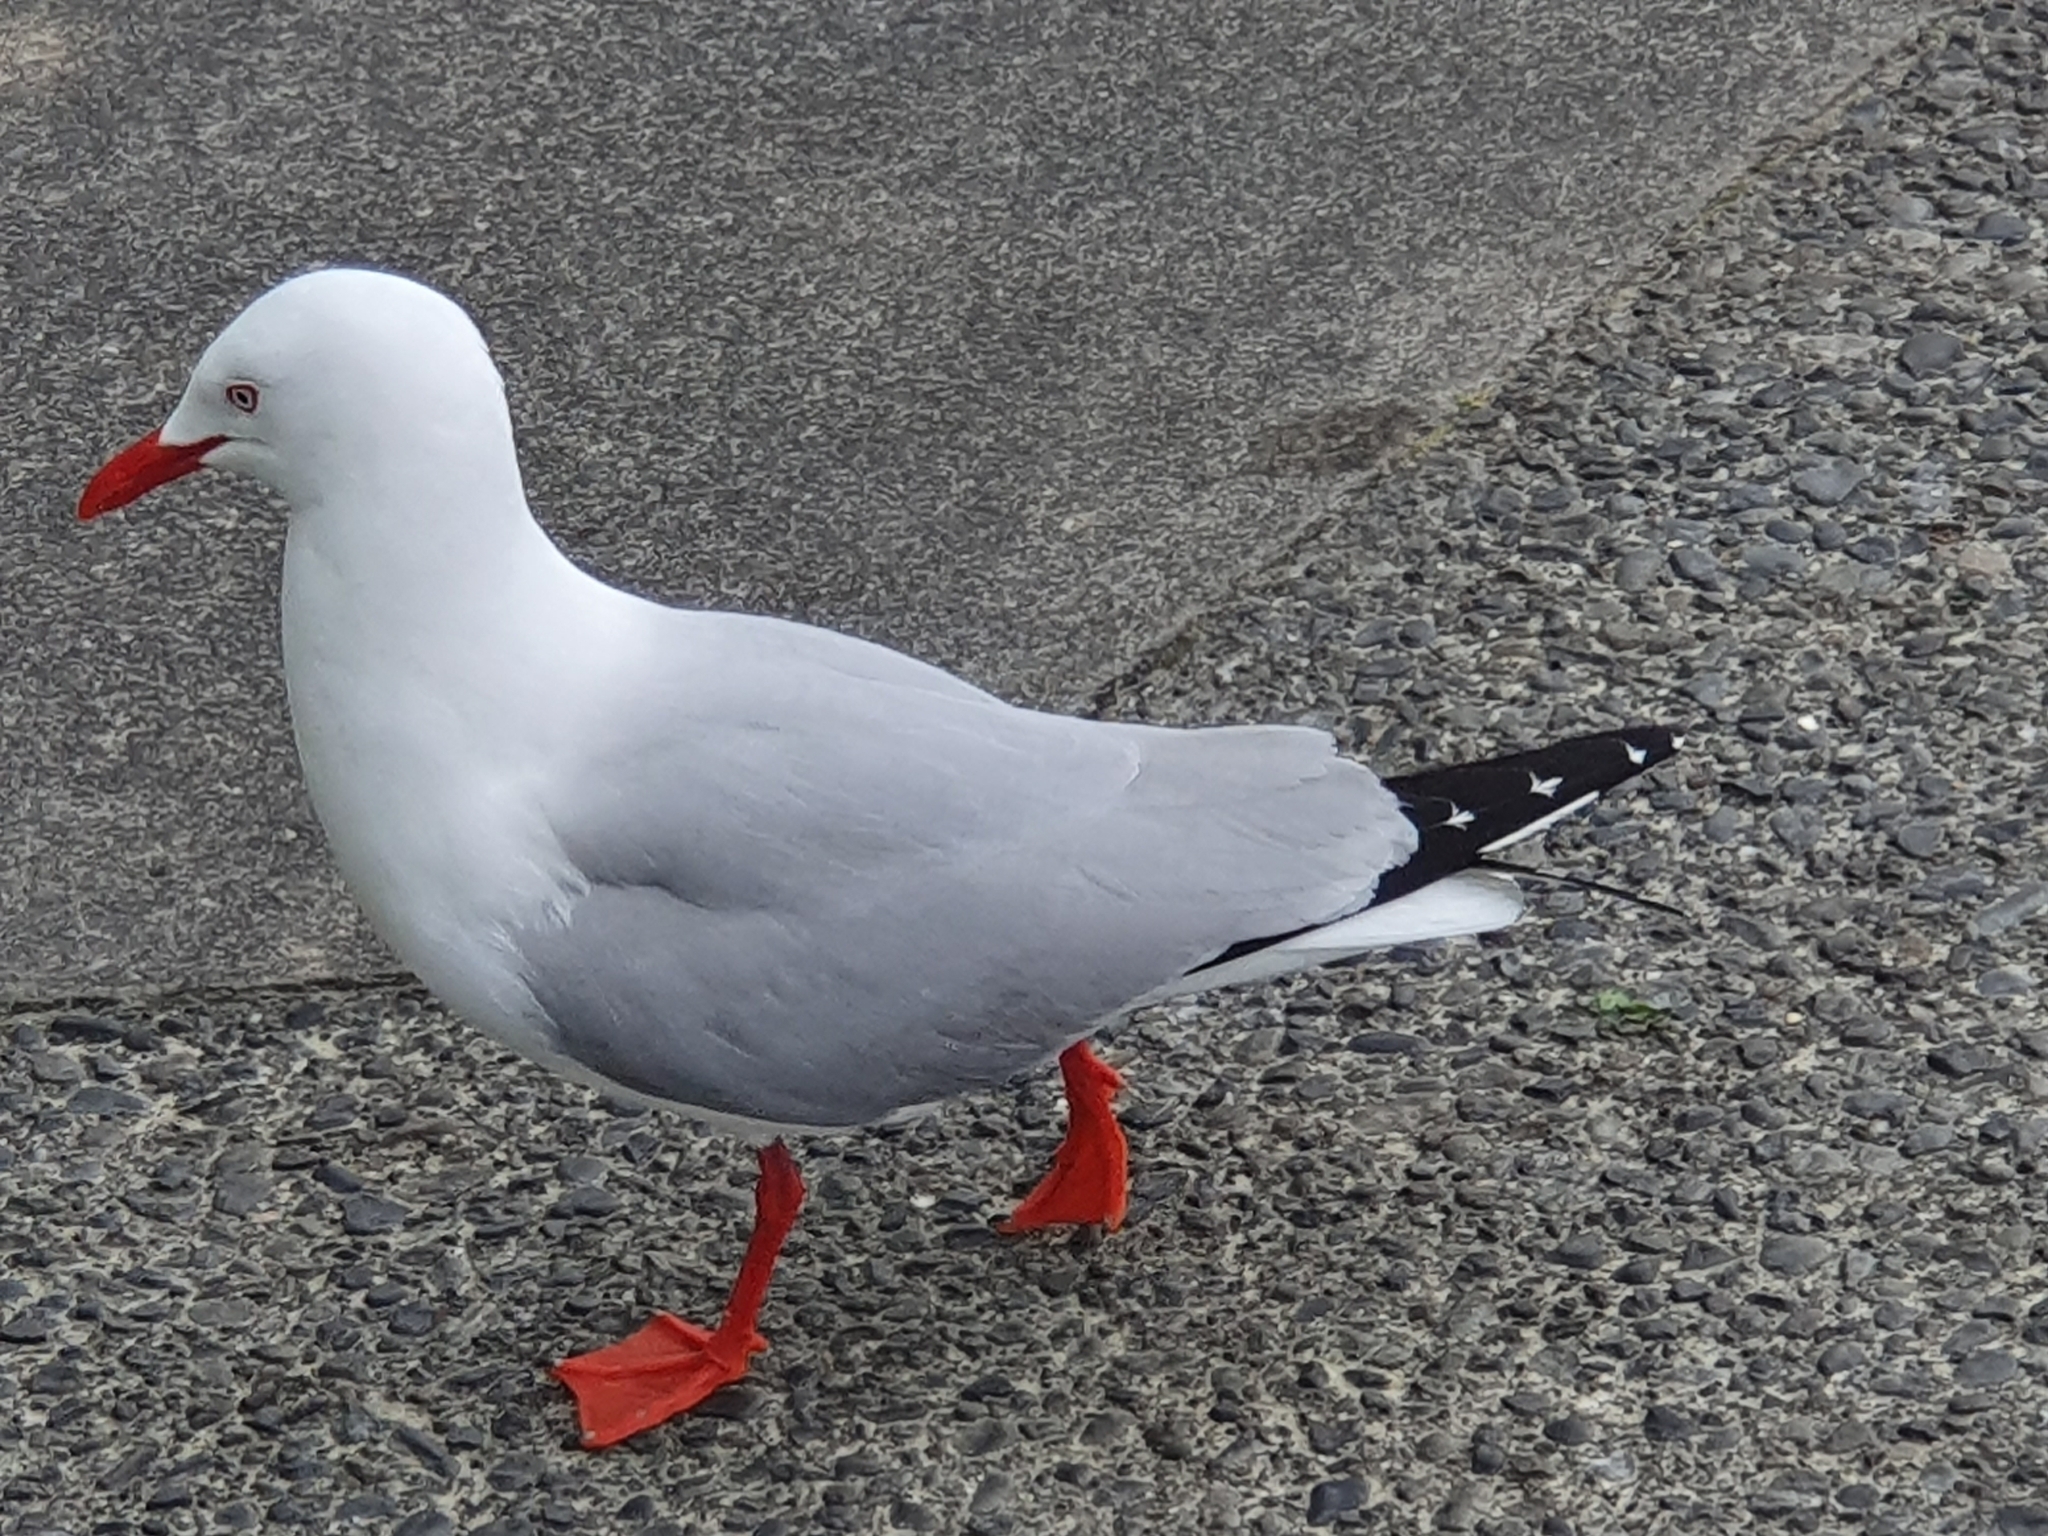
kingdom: Animalia
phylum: Chordata
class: Aves
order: Charadriiformes
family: Laridae
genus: Chroicocephalus
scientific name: Chroicocephalus novaehollandiae
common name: Silver gull
